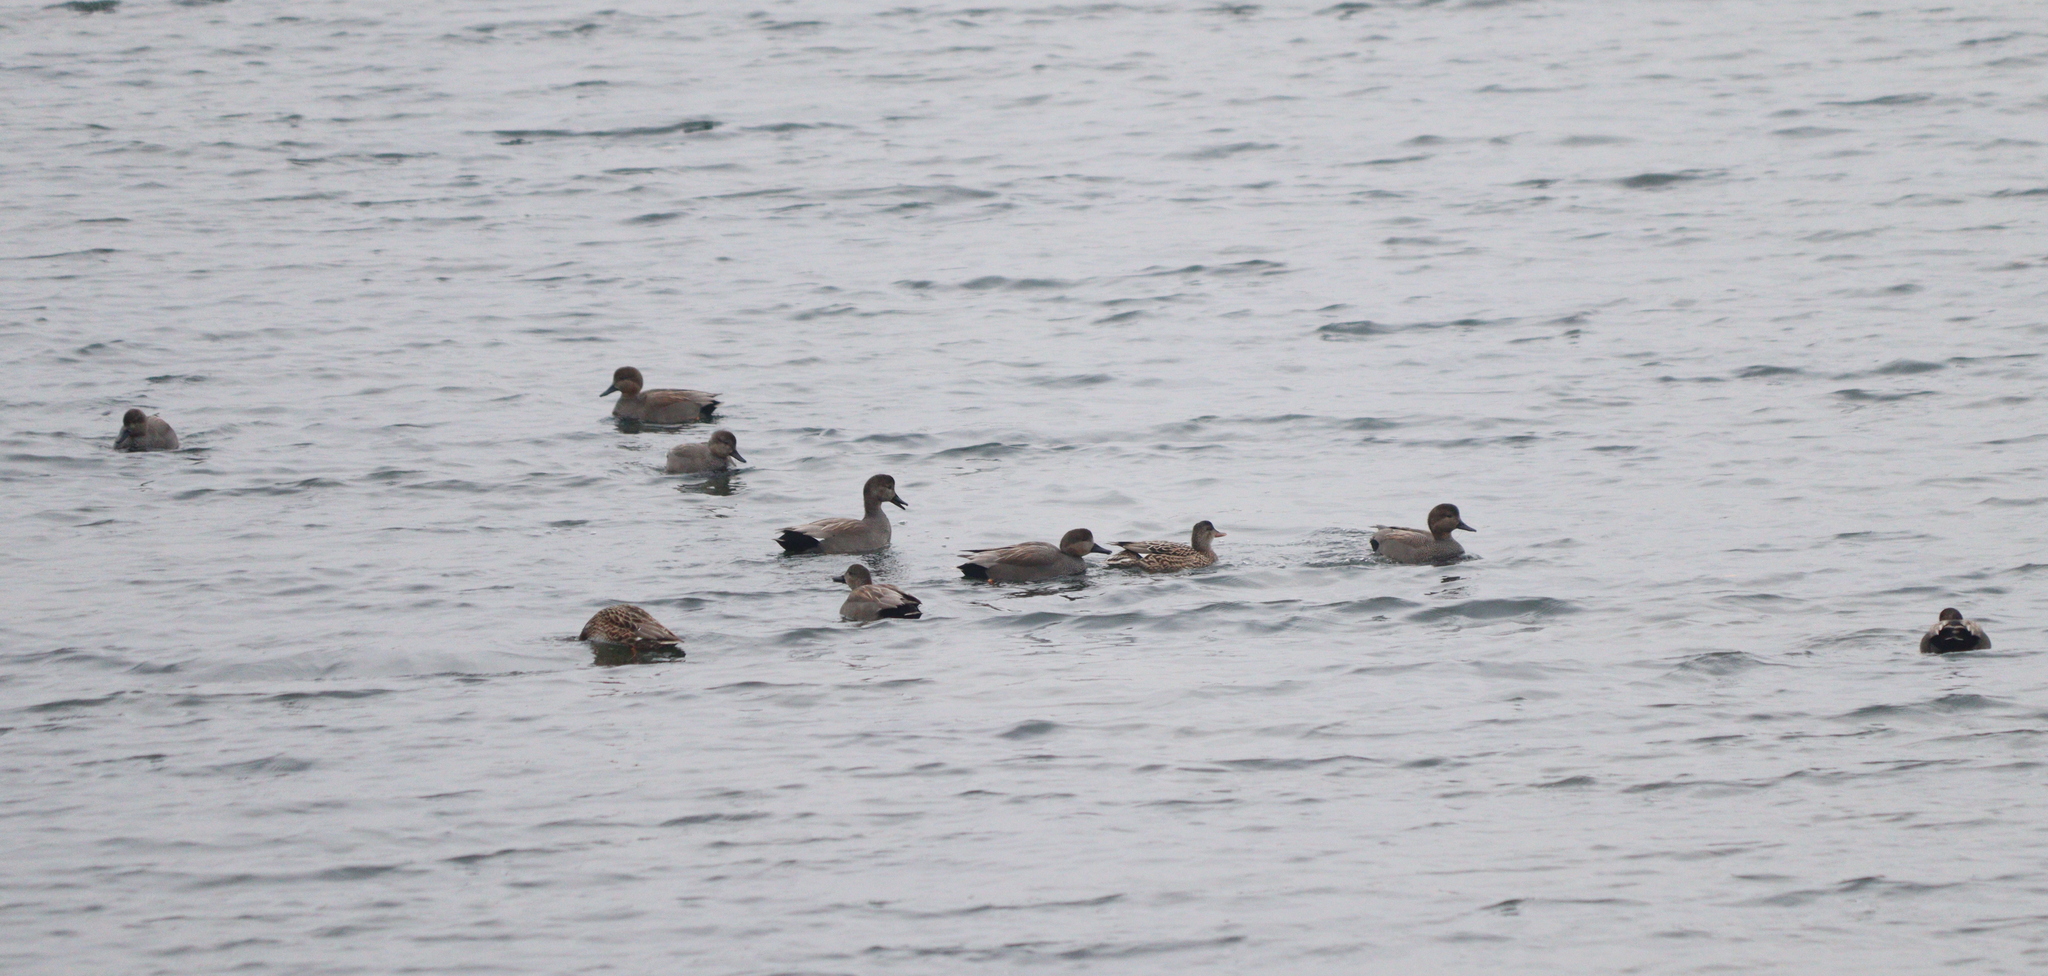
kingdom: Animalia
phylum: Chordata
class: Aves
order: Anseriformes
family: Anatidae
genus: Mareca
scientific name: Mareca strepera
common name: Gadwall
